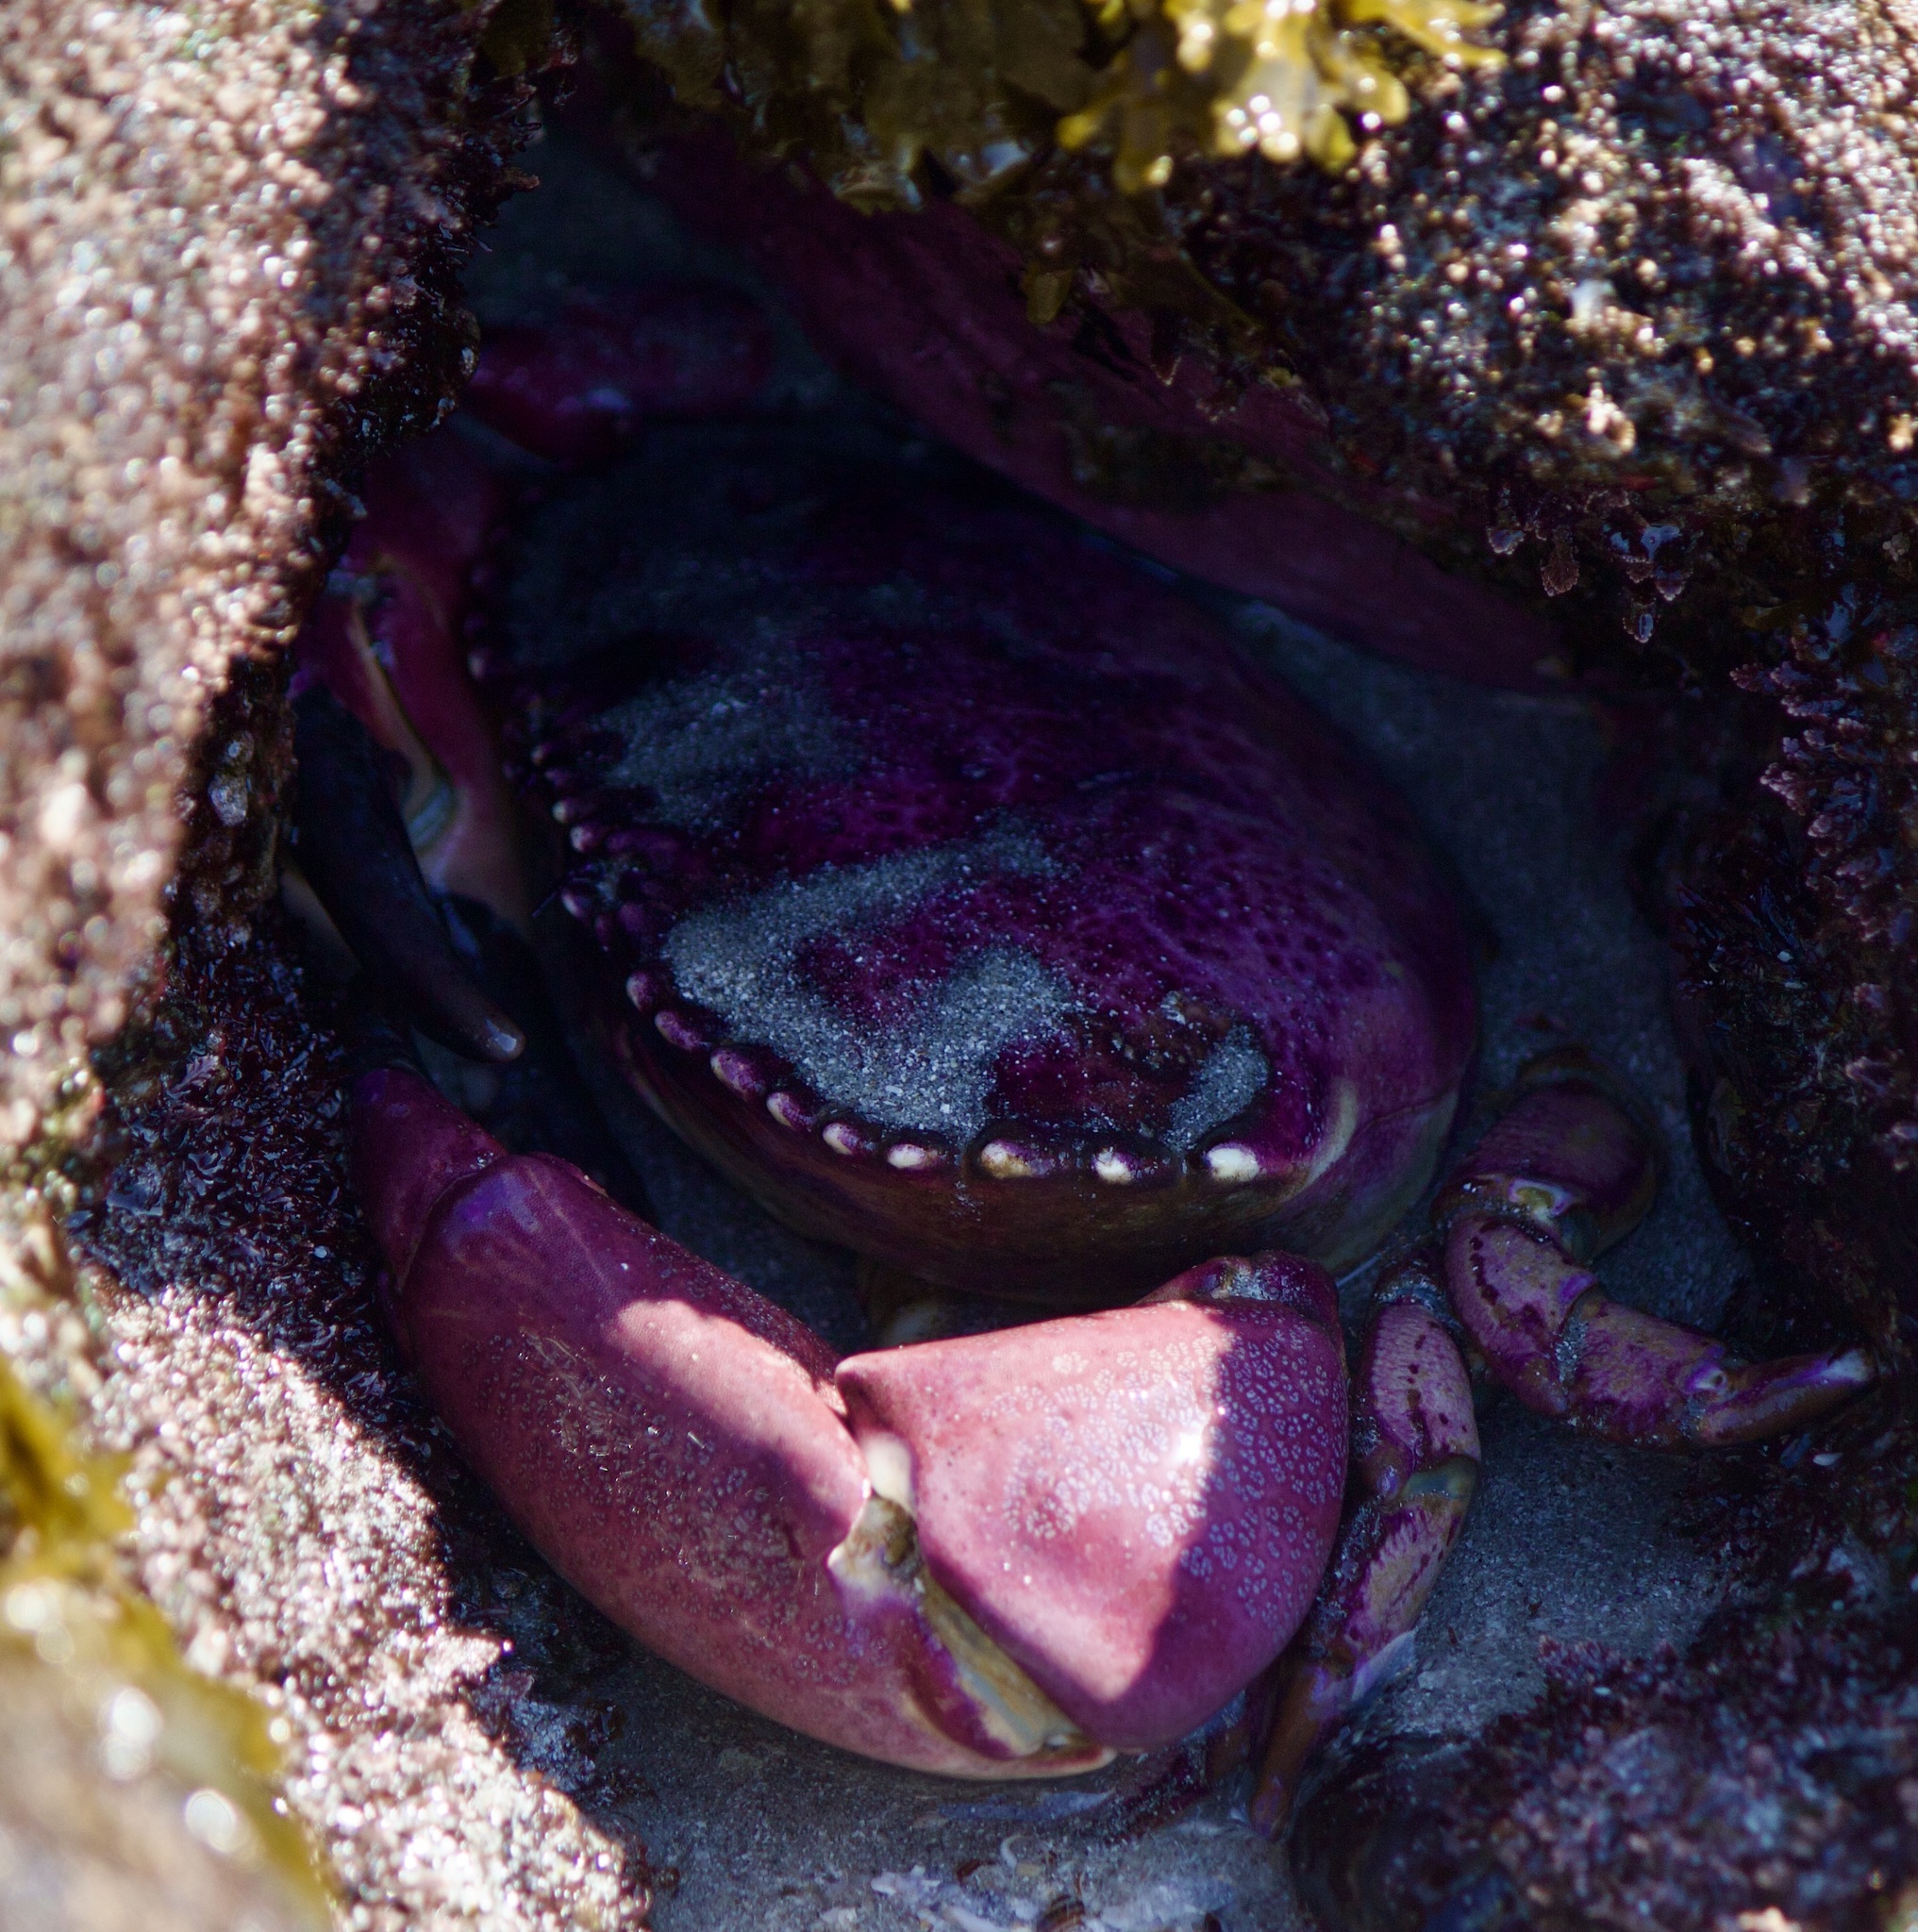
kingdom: Animalia
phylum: Arthropoda
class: Malacostraca
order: Decapoda
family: Platyxanthidae
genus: Platyxanthus
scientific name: Platyxanthus orbignyi
